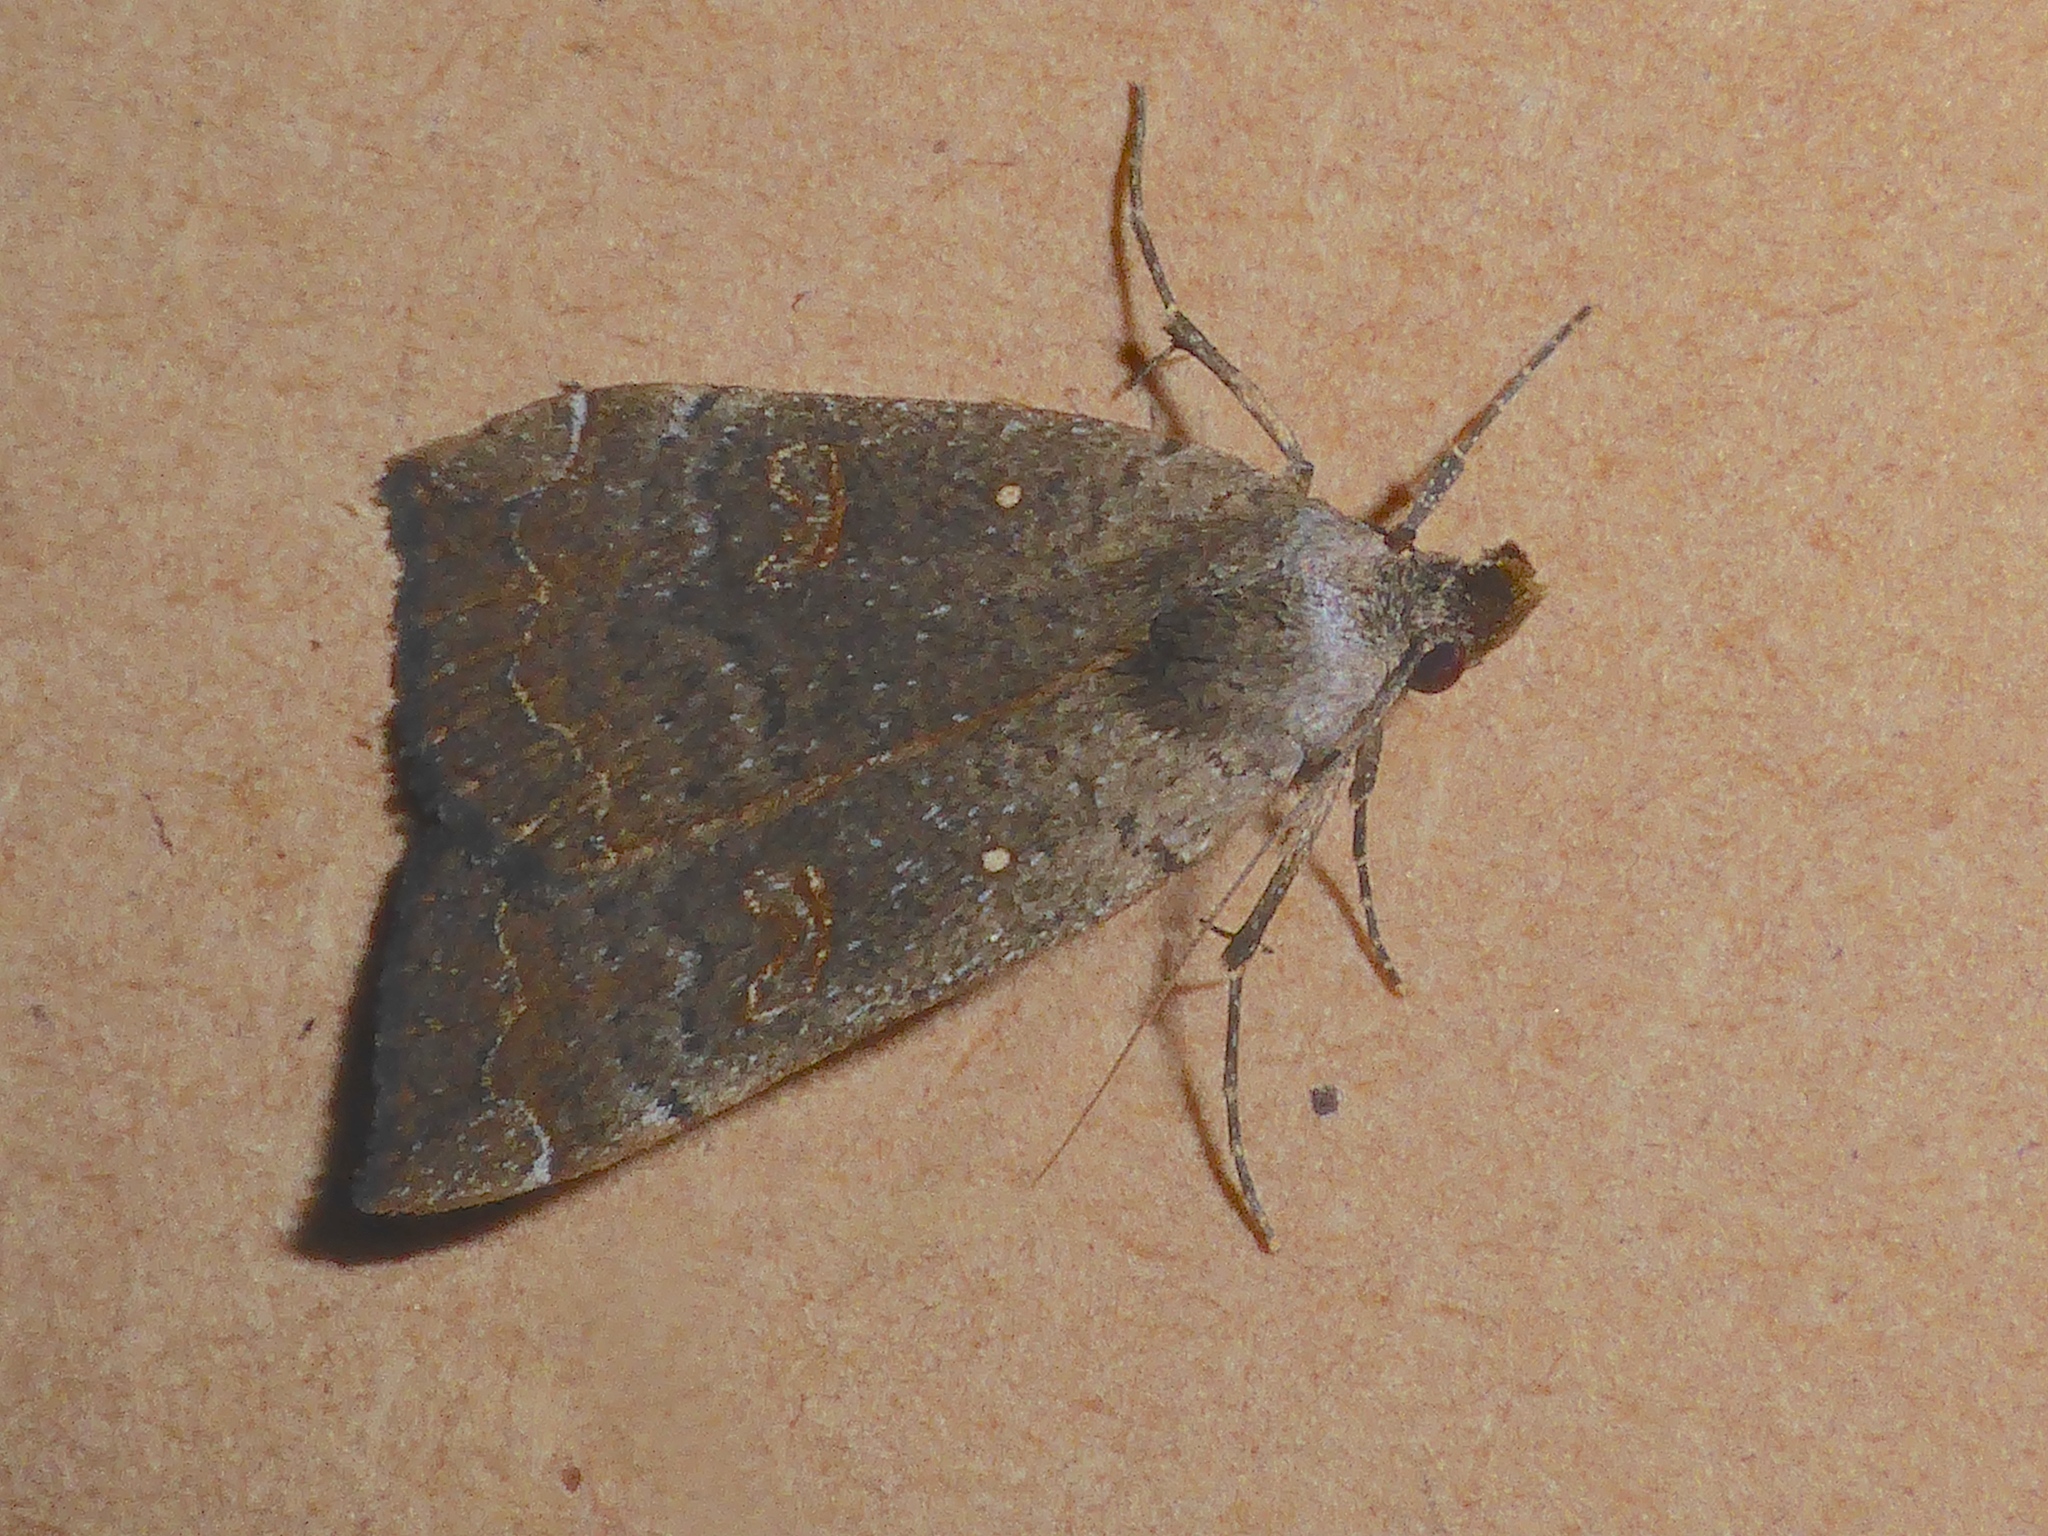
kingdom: Animalia
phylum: Arthropoda
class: Insecta
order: Lepidoptera
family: Erebidae
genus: Rhapsa
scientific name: Rhapsa scotosialis
